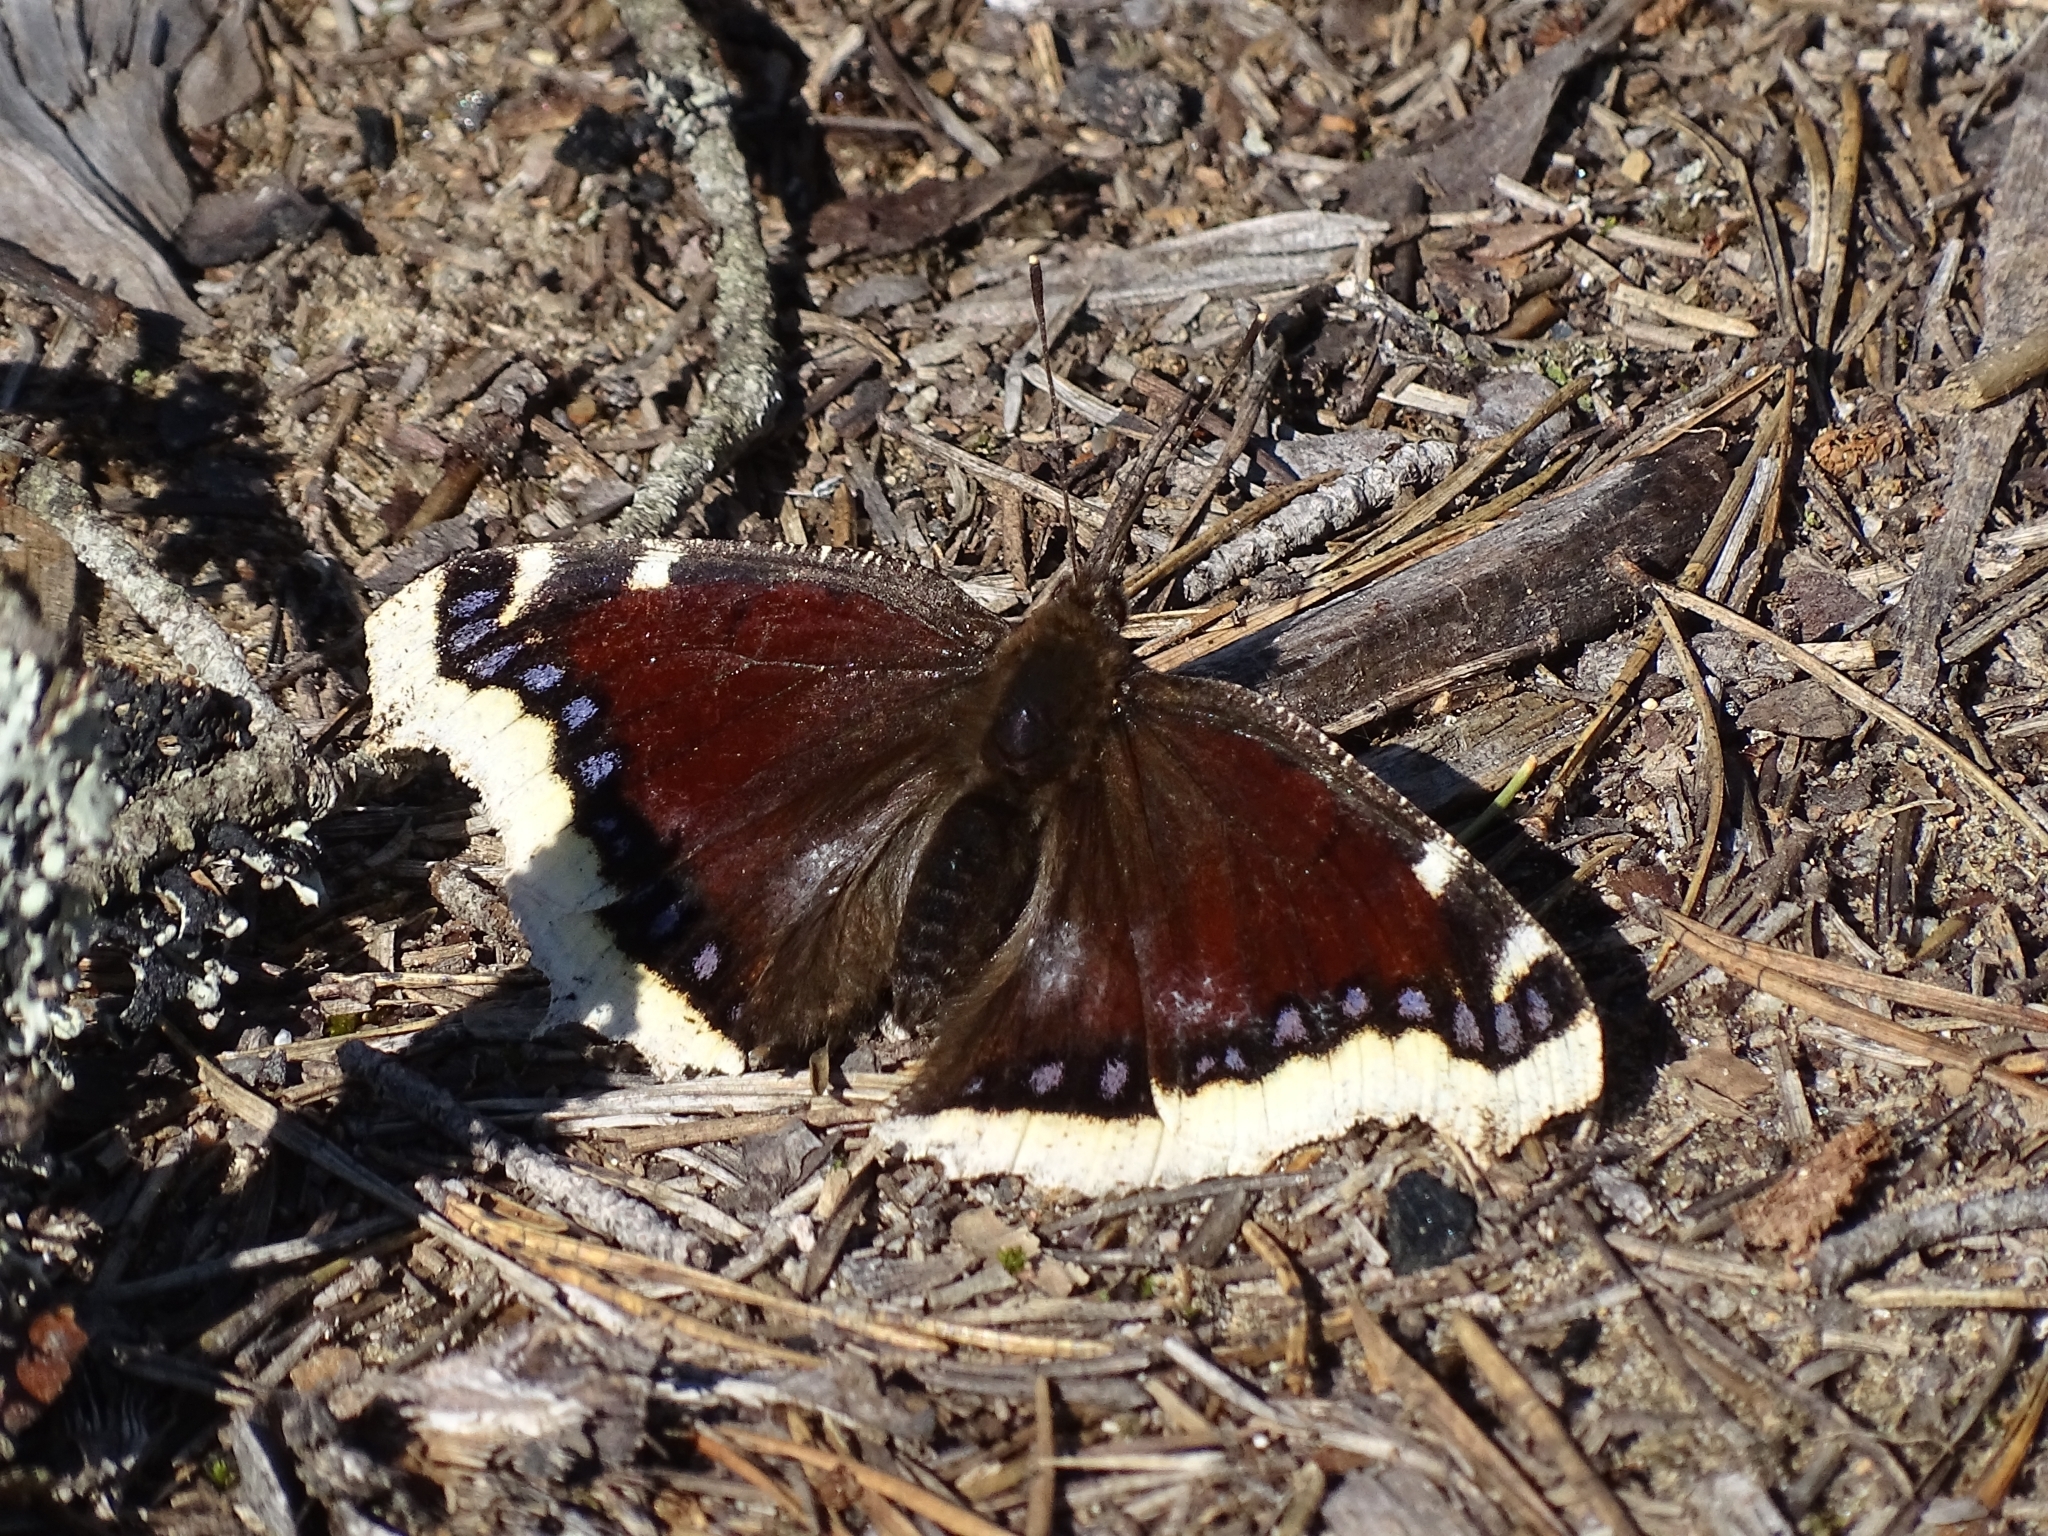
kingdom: Animalia
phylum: Arthropoda
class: Insecta
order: Lepidoptera
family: Nymphalidae
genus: Nymphalis
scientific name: Nymphalis antiopa
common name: Camberwell beauty
